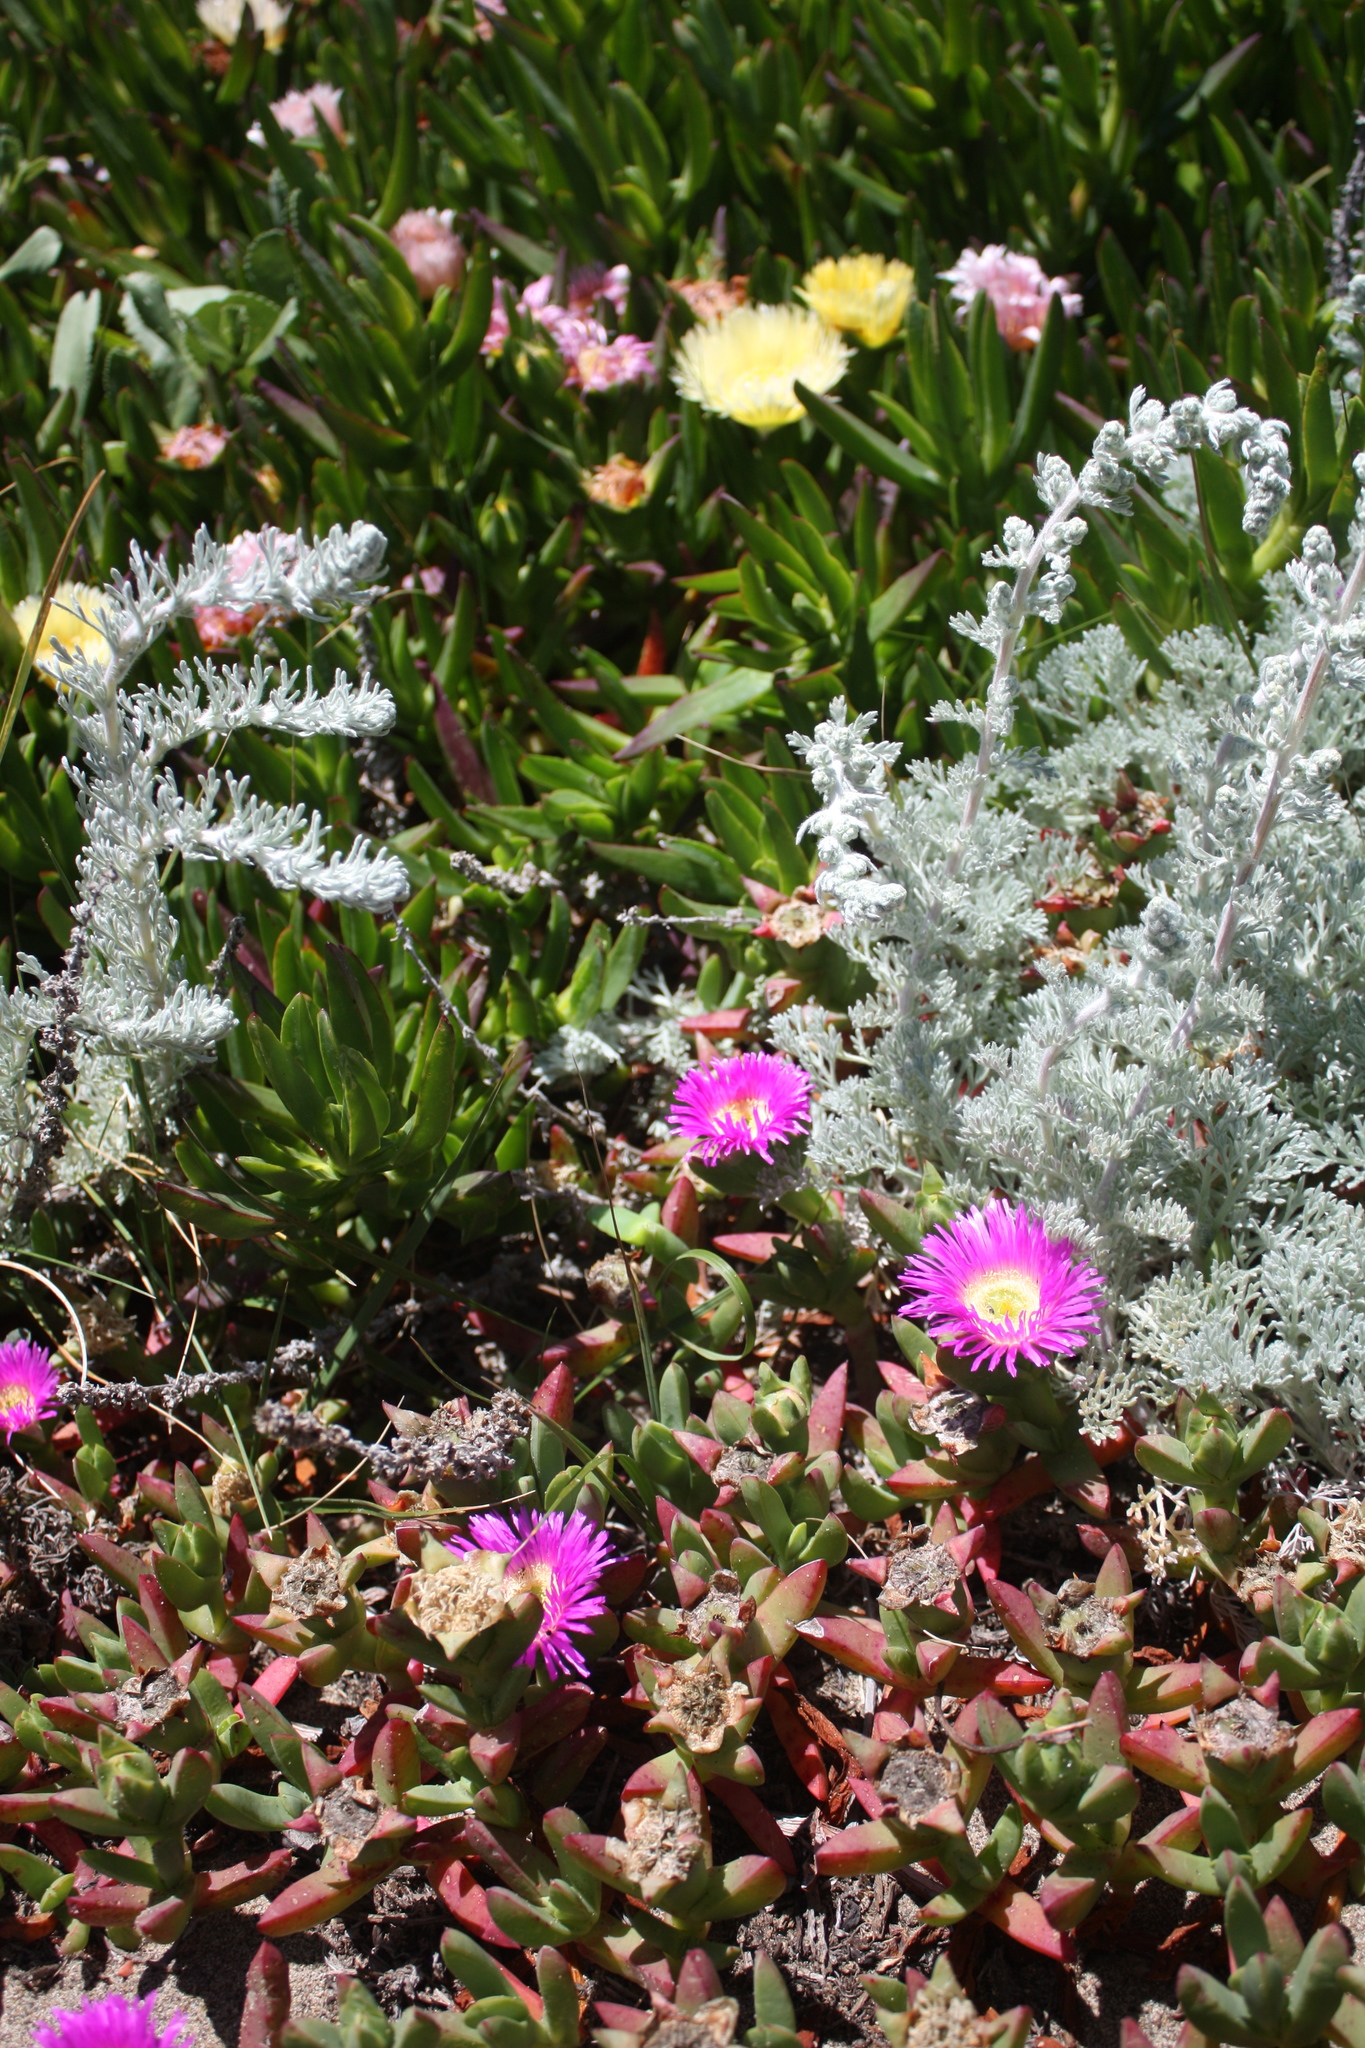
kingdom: Plantae
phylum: Tracheophyta
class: Magnoliopsida
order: Caryophyllales
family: Aizoaceae
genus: Carpobrotus
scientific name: Carpobrotus edulis
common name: Hottentot-fig
